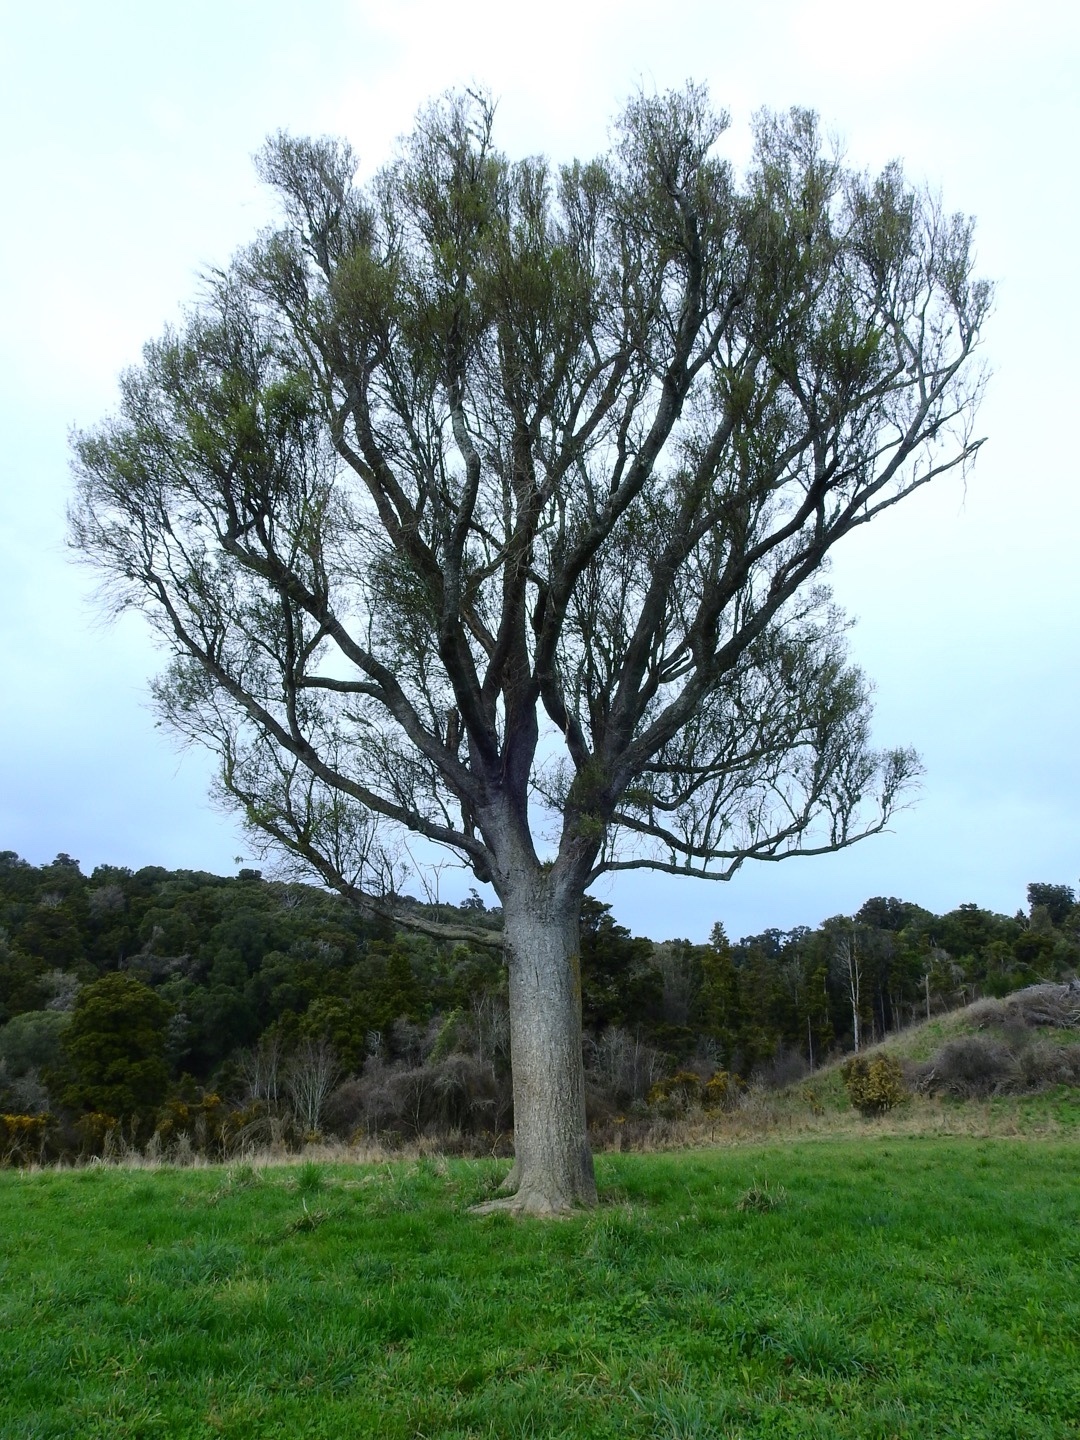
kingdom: Plantae
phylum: Tracheophyta
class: Magnoliopsida
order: Malvales
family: Malvaceae
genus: Hoheria
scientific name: Hoheria angustifolia
